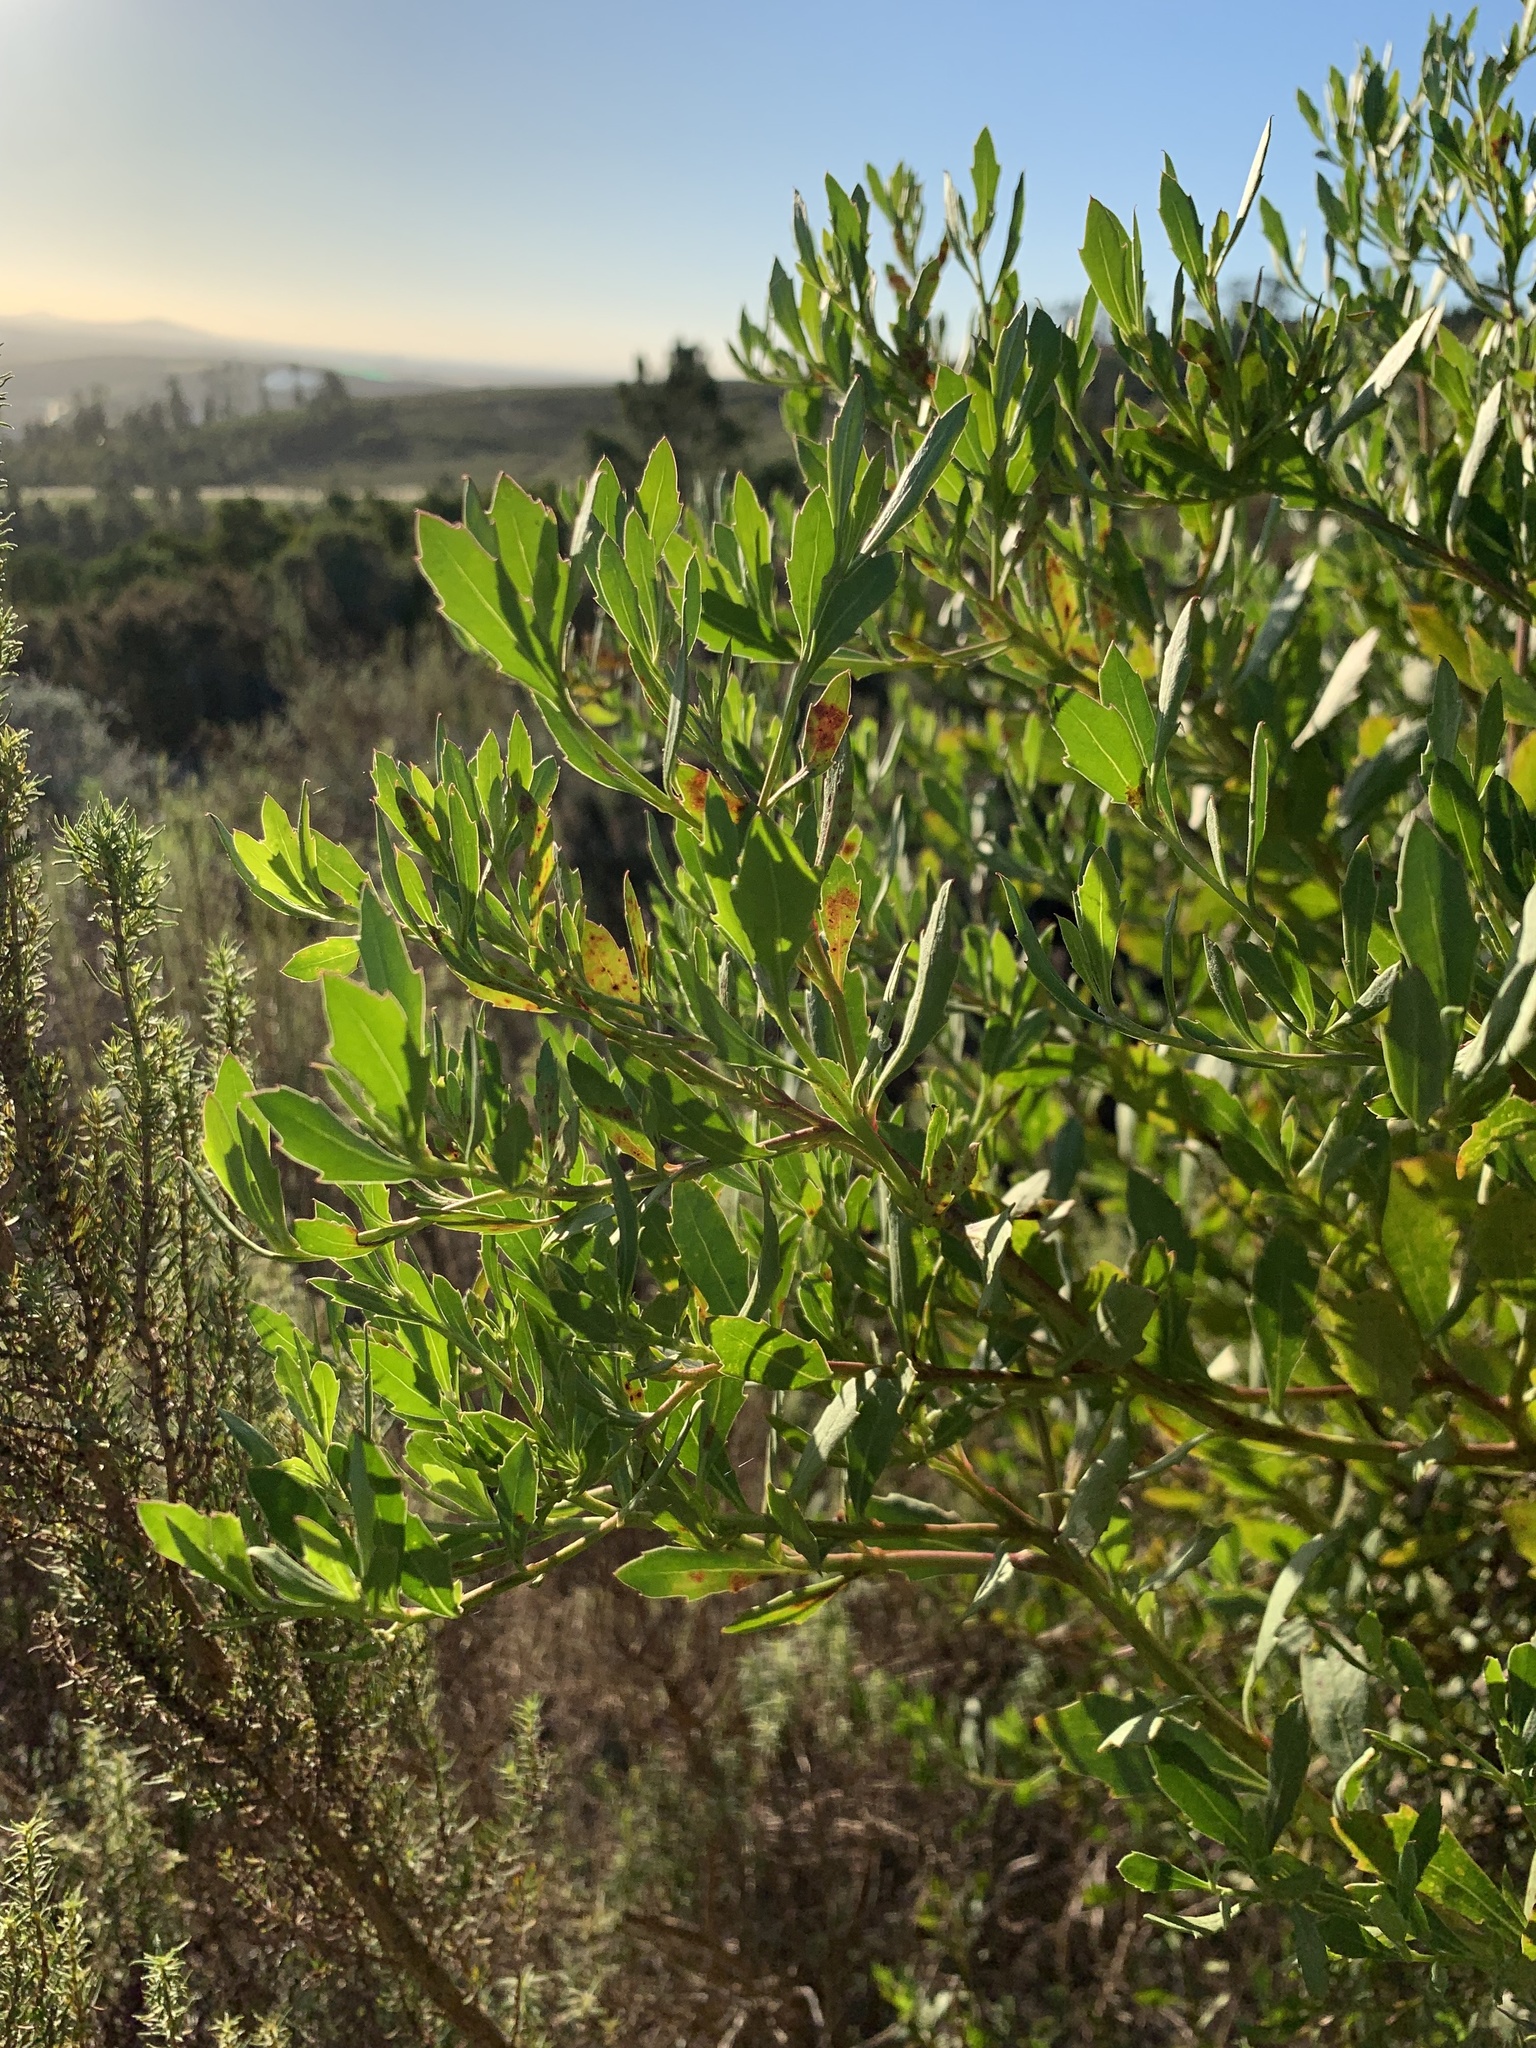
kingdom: Plantae
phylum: Tracheophyta
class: Magnoliopsida
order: Asterales
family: Asteraceae
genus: Osteospermum
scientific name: Osteospermum moniliferum
